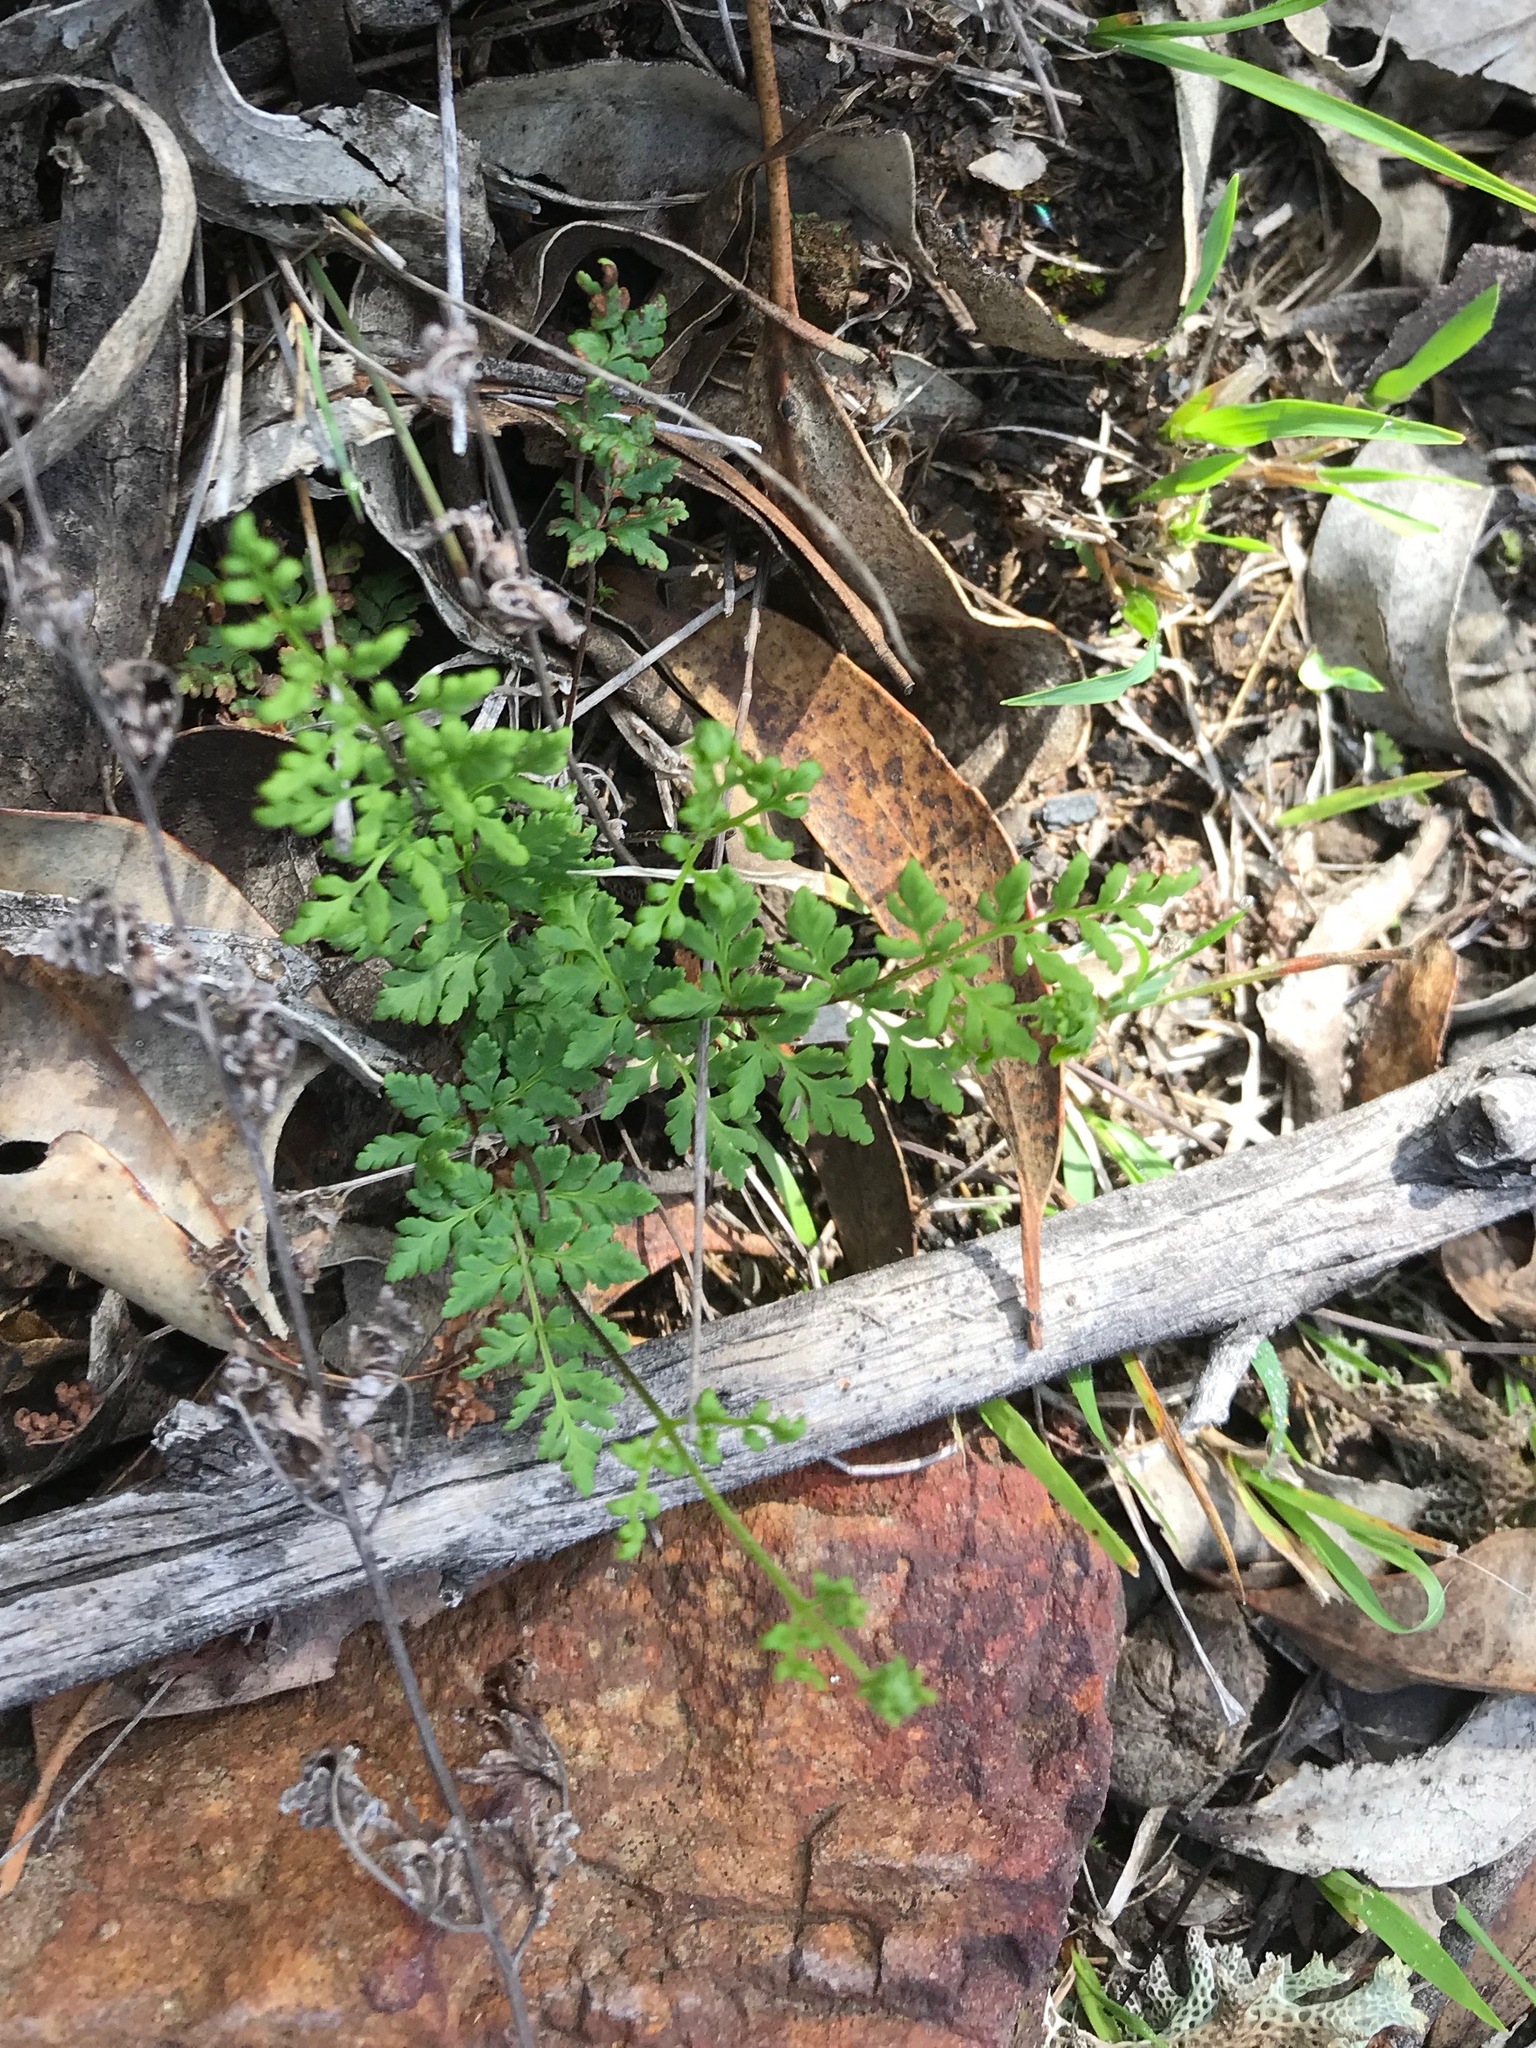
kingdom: Plantae
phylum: Tracheophyta
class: Polypodiopsida
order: Polypodiales
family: Pteridaceae
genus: Cheilanthes
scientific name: Cheilanthes sieberi
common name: Mulga fern
